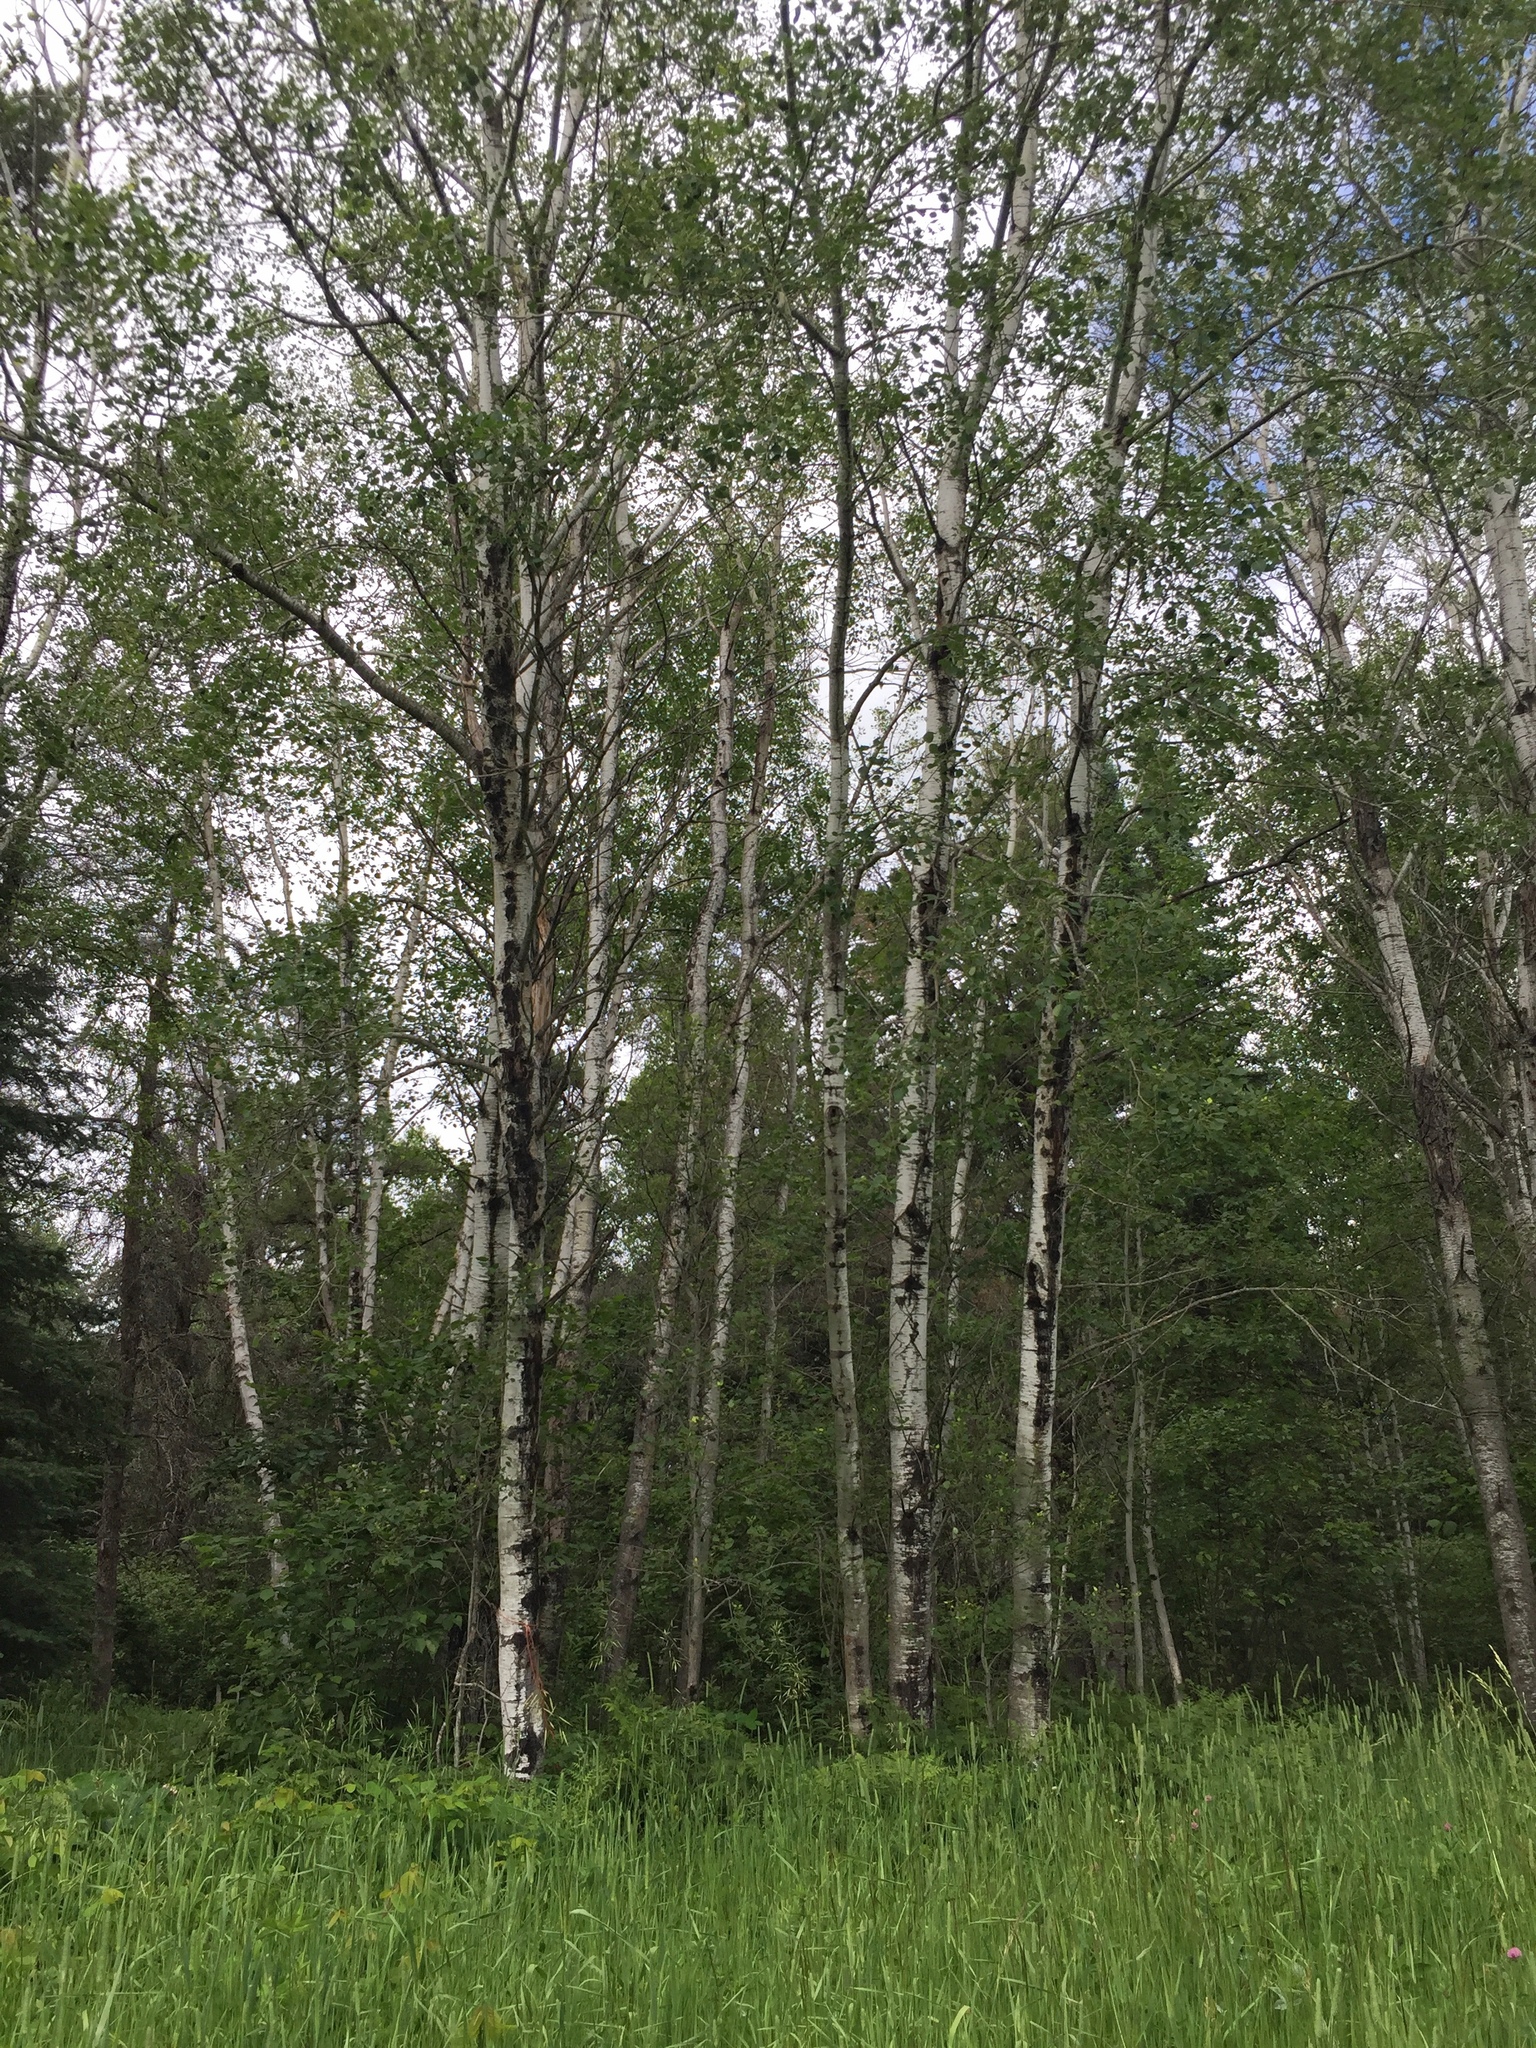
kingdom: Plantae
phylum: Tracheophyta
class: Magnoliopsida
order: Malpighiales
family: Salicaceae
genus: Populus
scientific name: Populus tremuloides
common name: Quaking aspen
